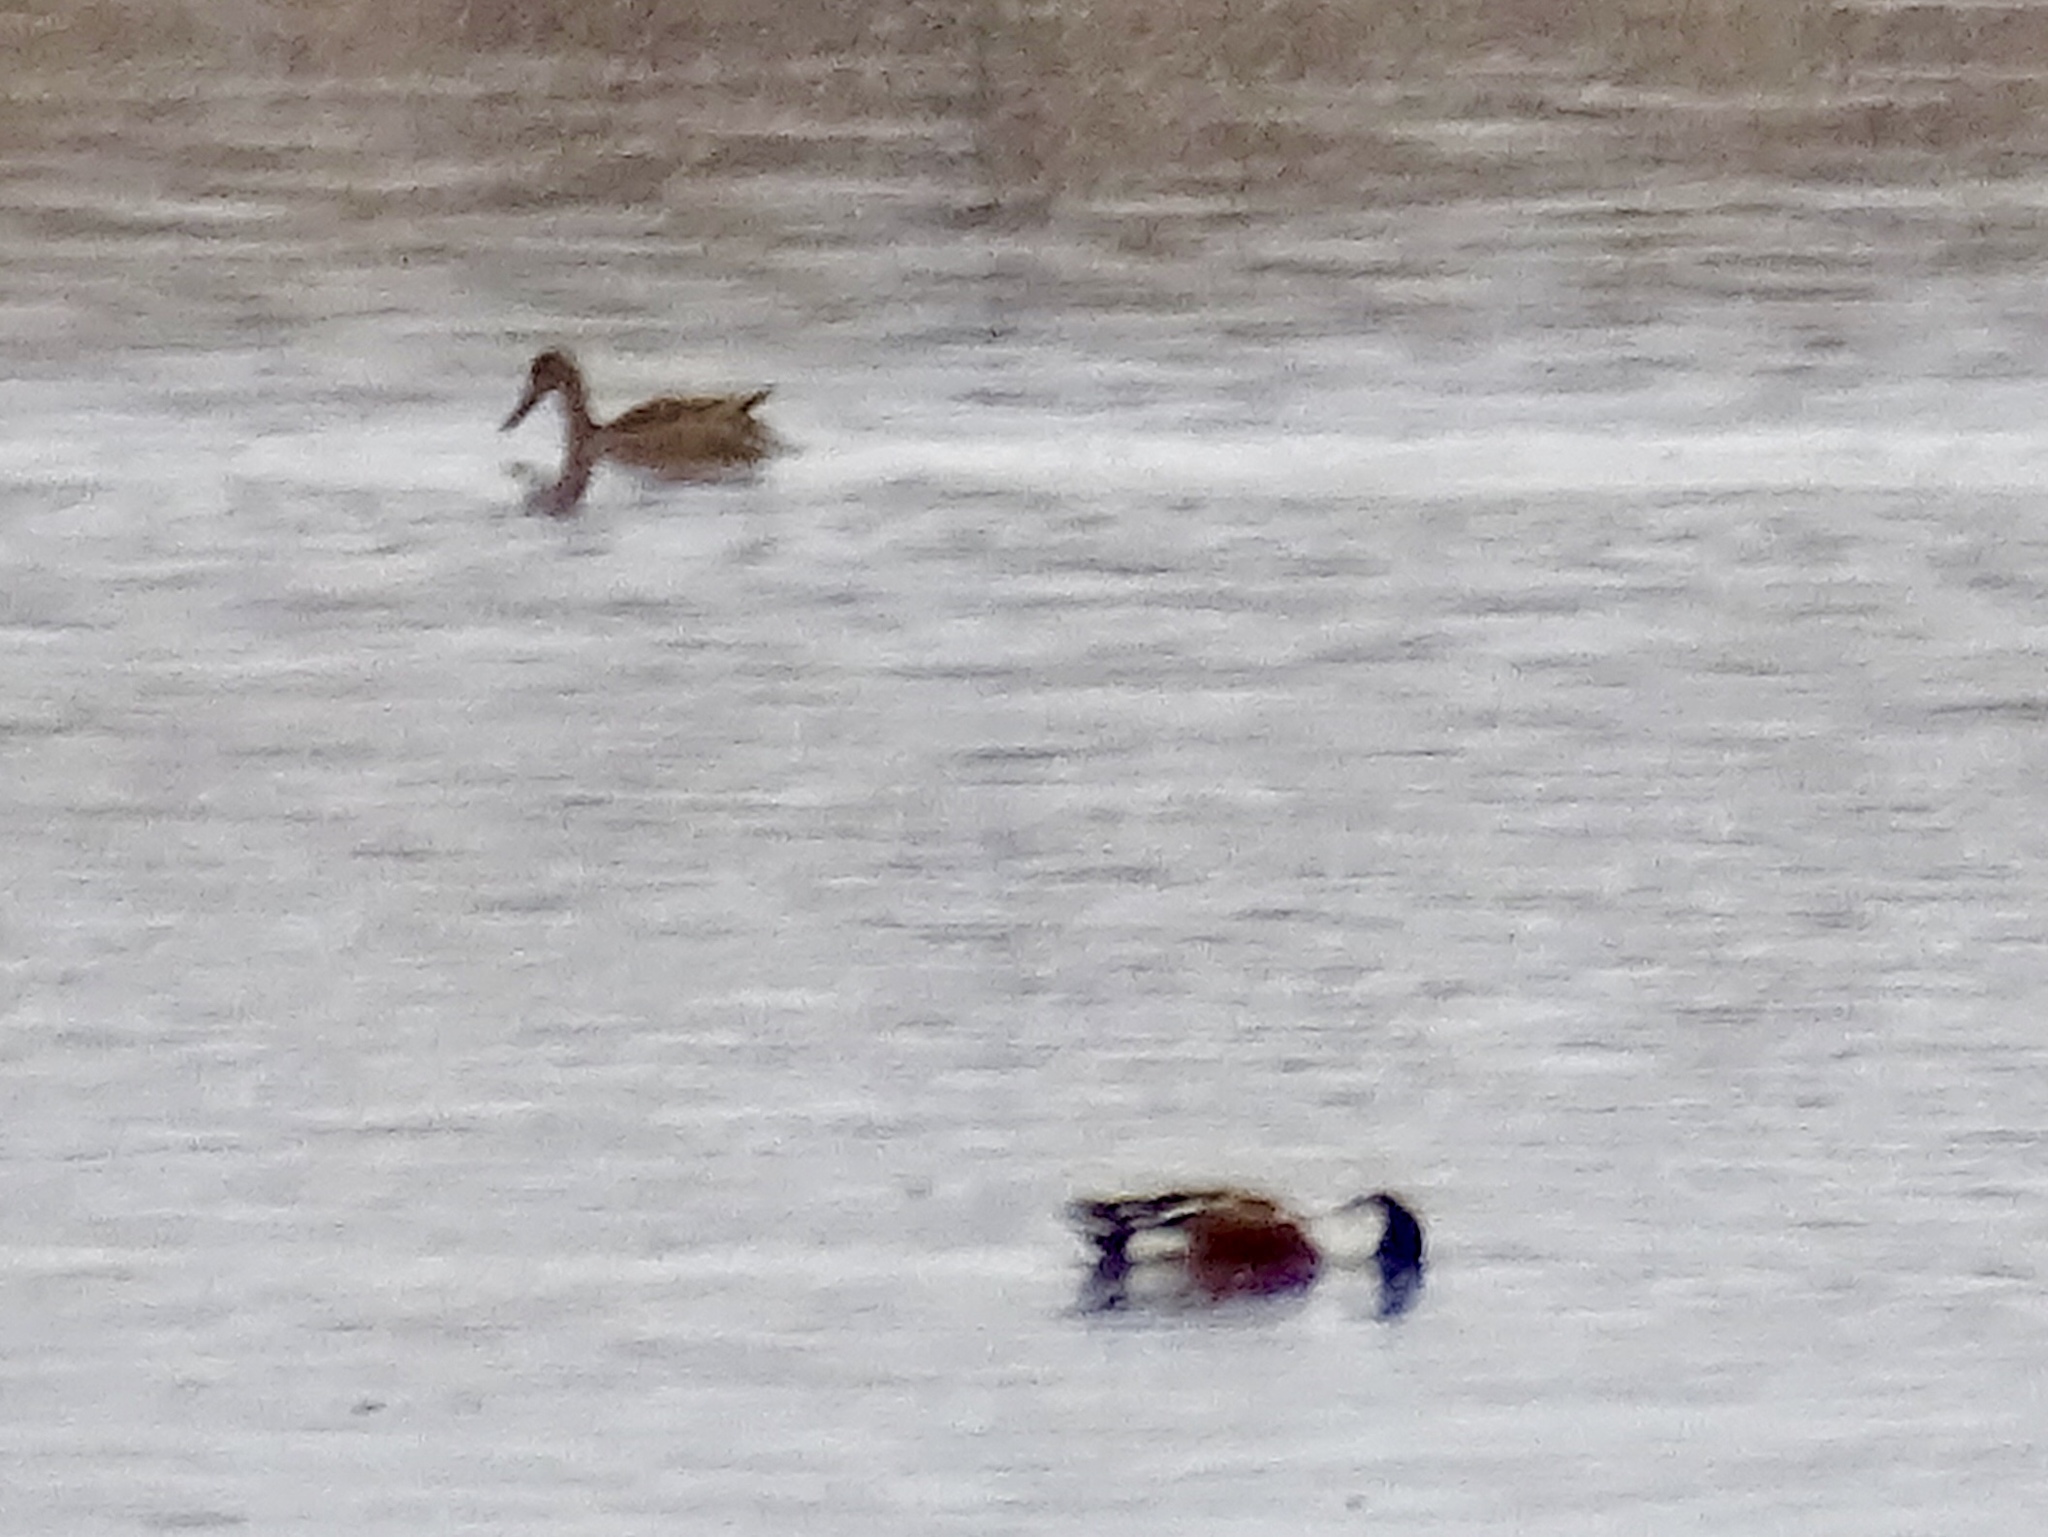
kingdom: Animalia
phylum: Chordata
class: Aves
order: Anseriformes
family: Anatidae
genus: Spatula
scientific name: Spatula clypeata
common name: Northern shoveler
